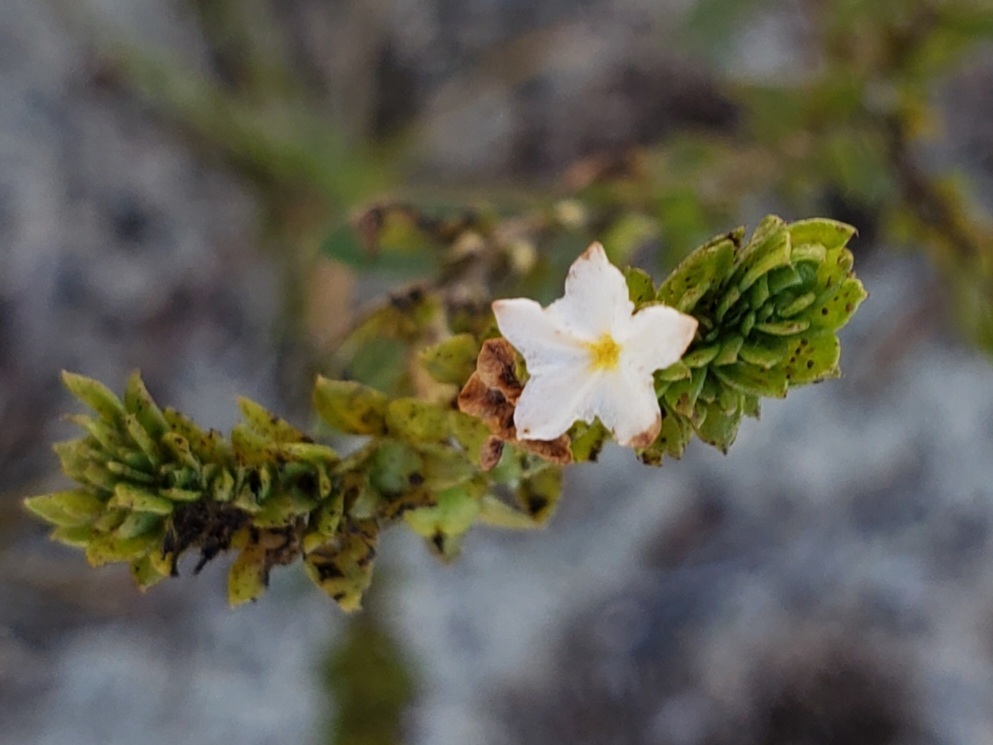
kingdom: Plantae
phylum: Tracheophyta
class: Magnoliopsida
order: Boraginales
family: Heliotropiaceae
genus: Euploca
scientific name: Euploca polyphylla
